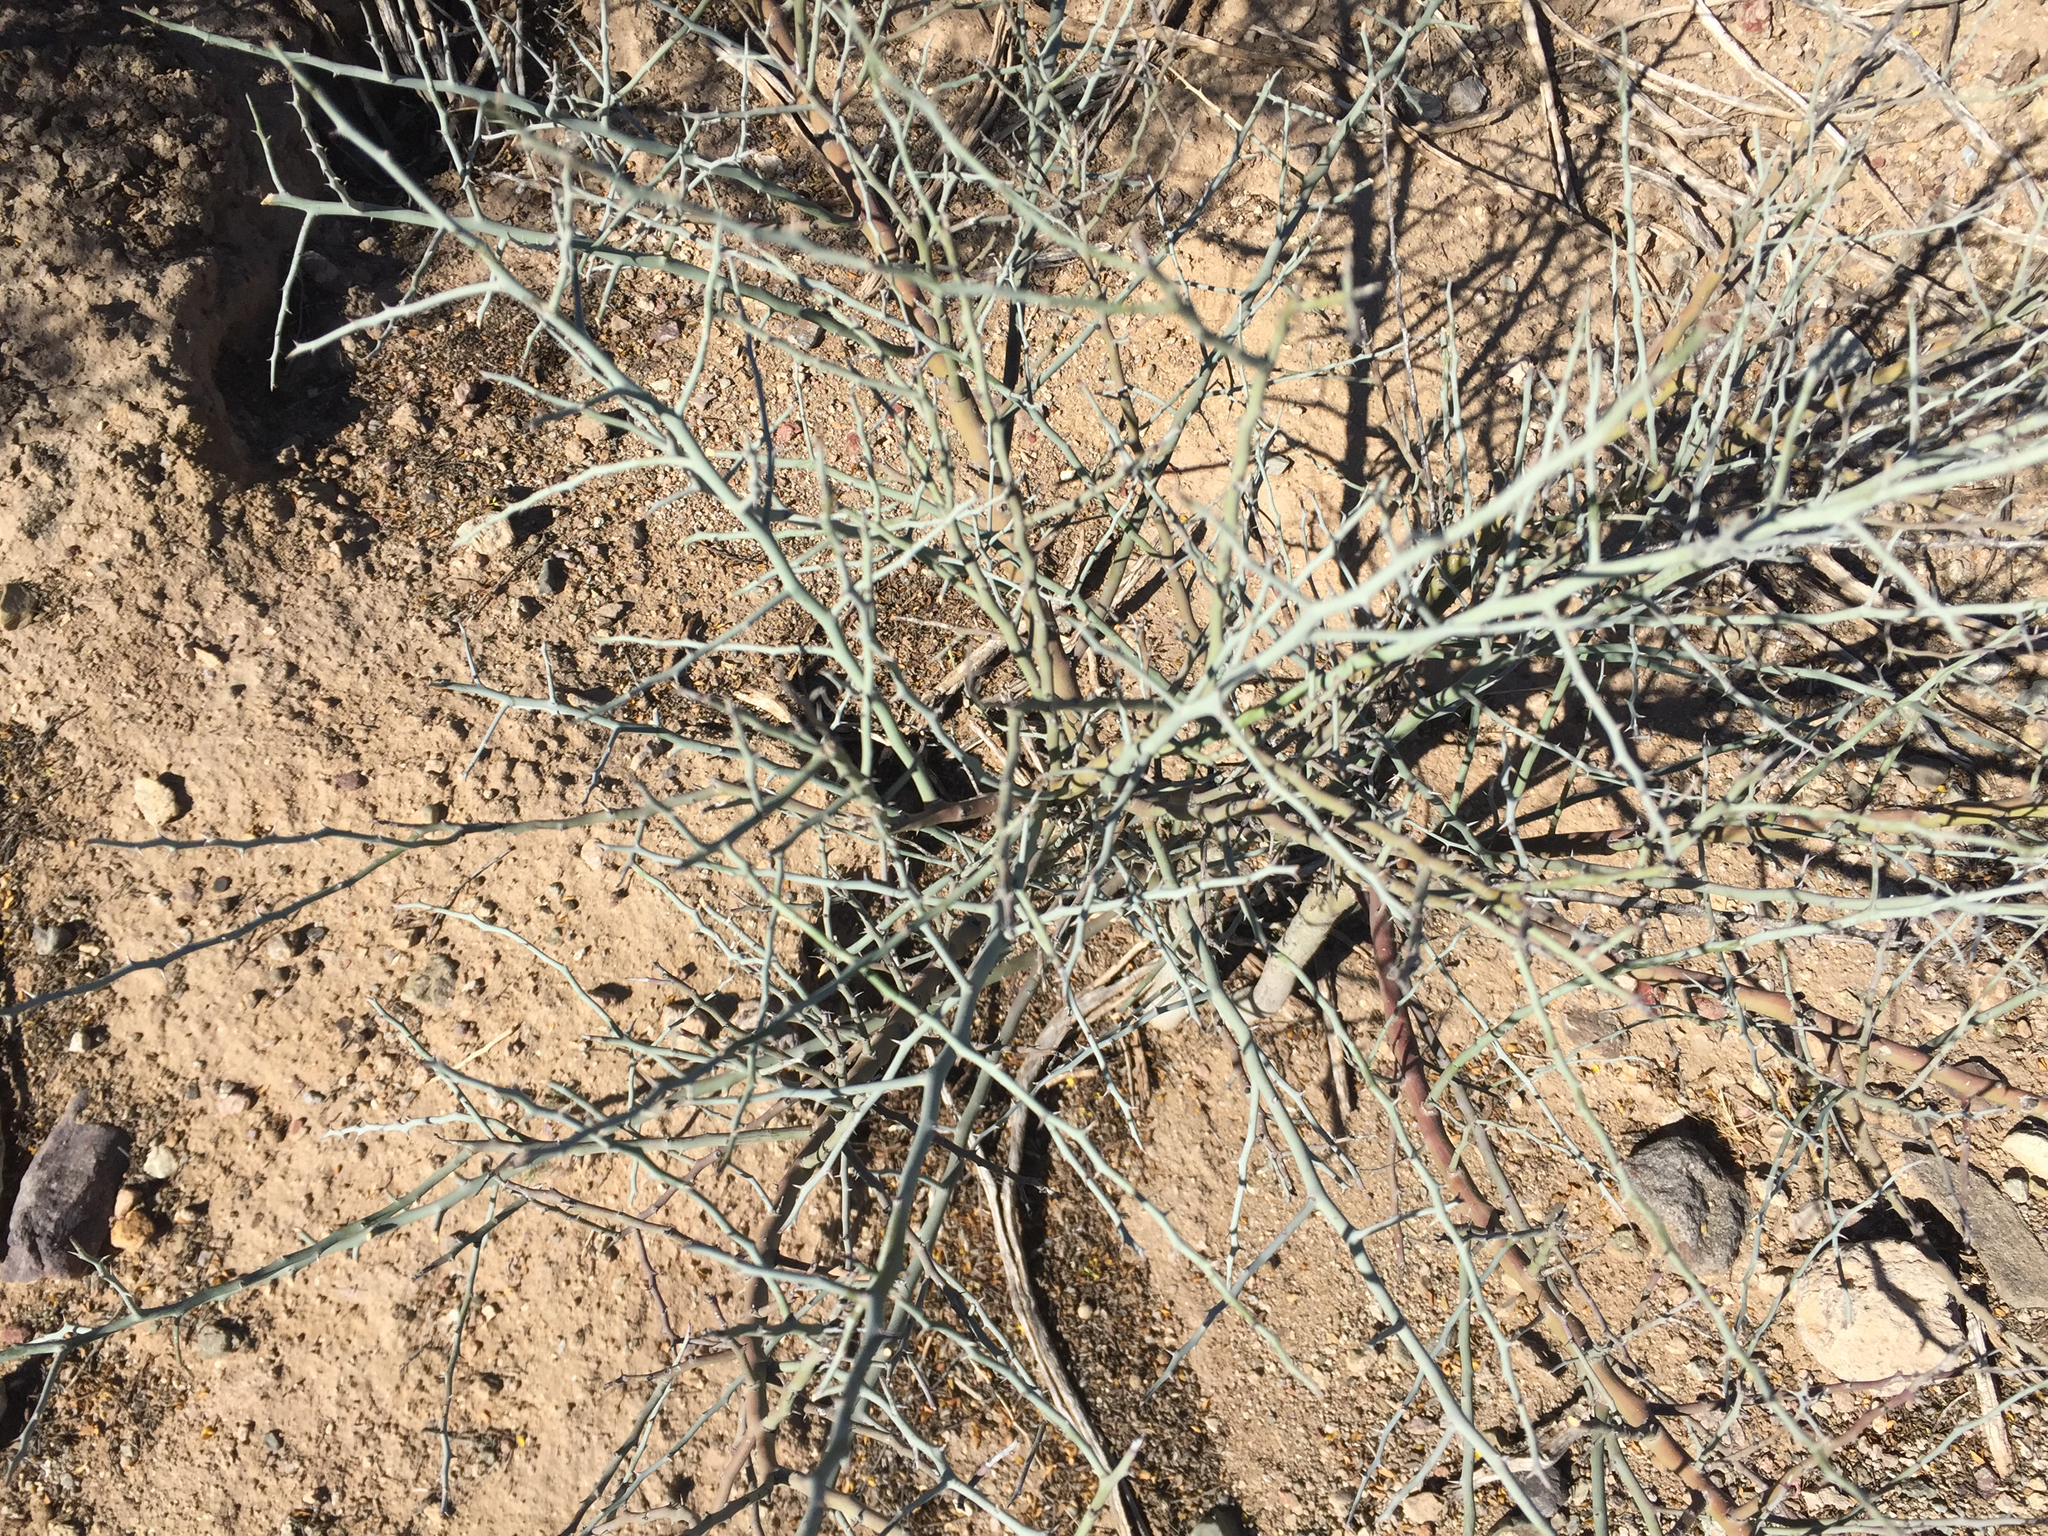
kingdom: Plantae
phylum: Tracheophyta
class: Magnoliopsida
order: Fabales
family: Fabaceae
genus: Parkinsonia
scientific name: Parkinsonia florida
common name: Blue paloverde
